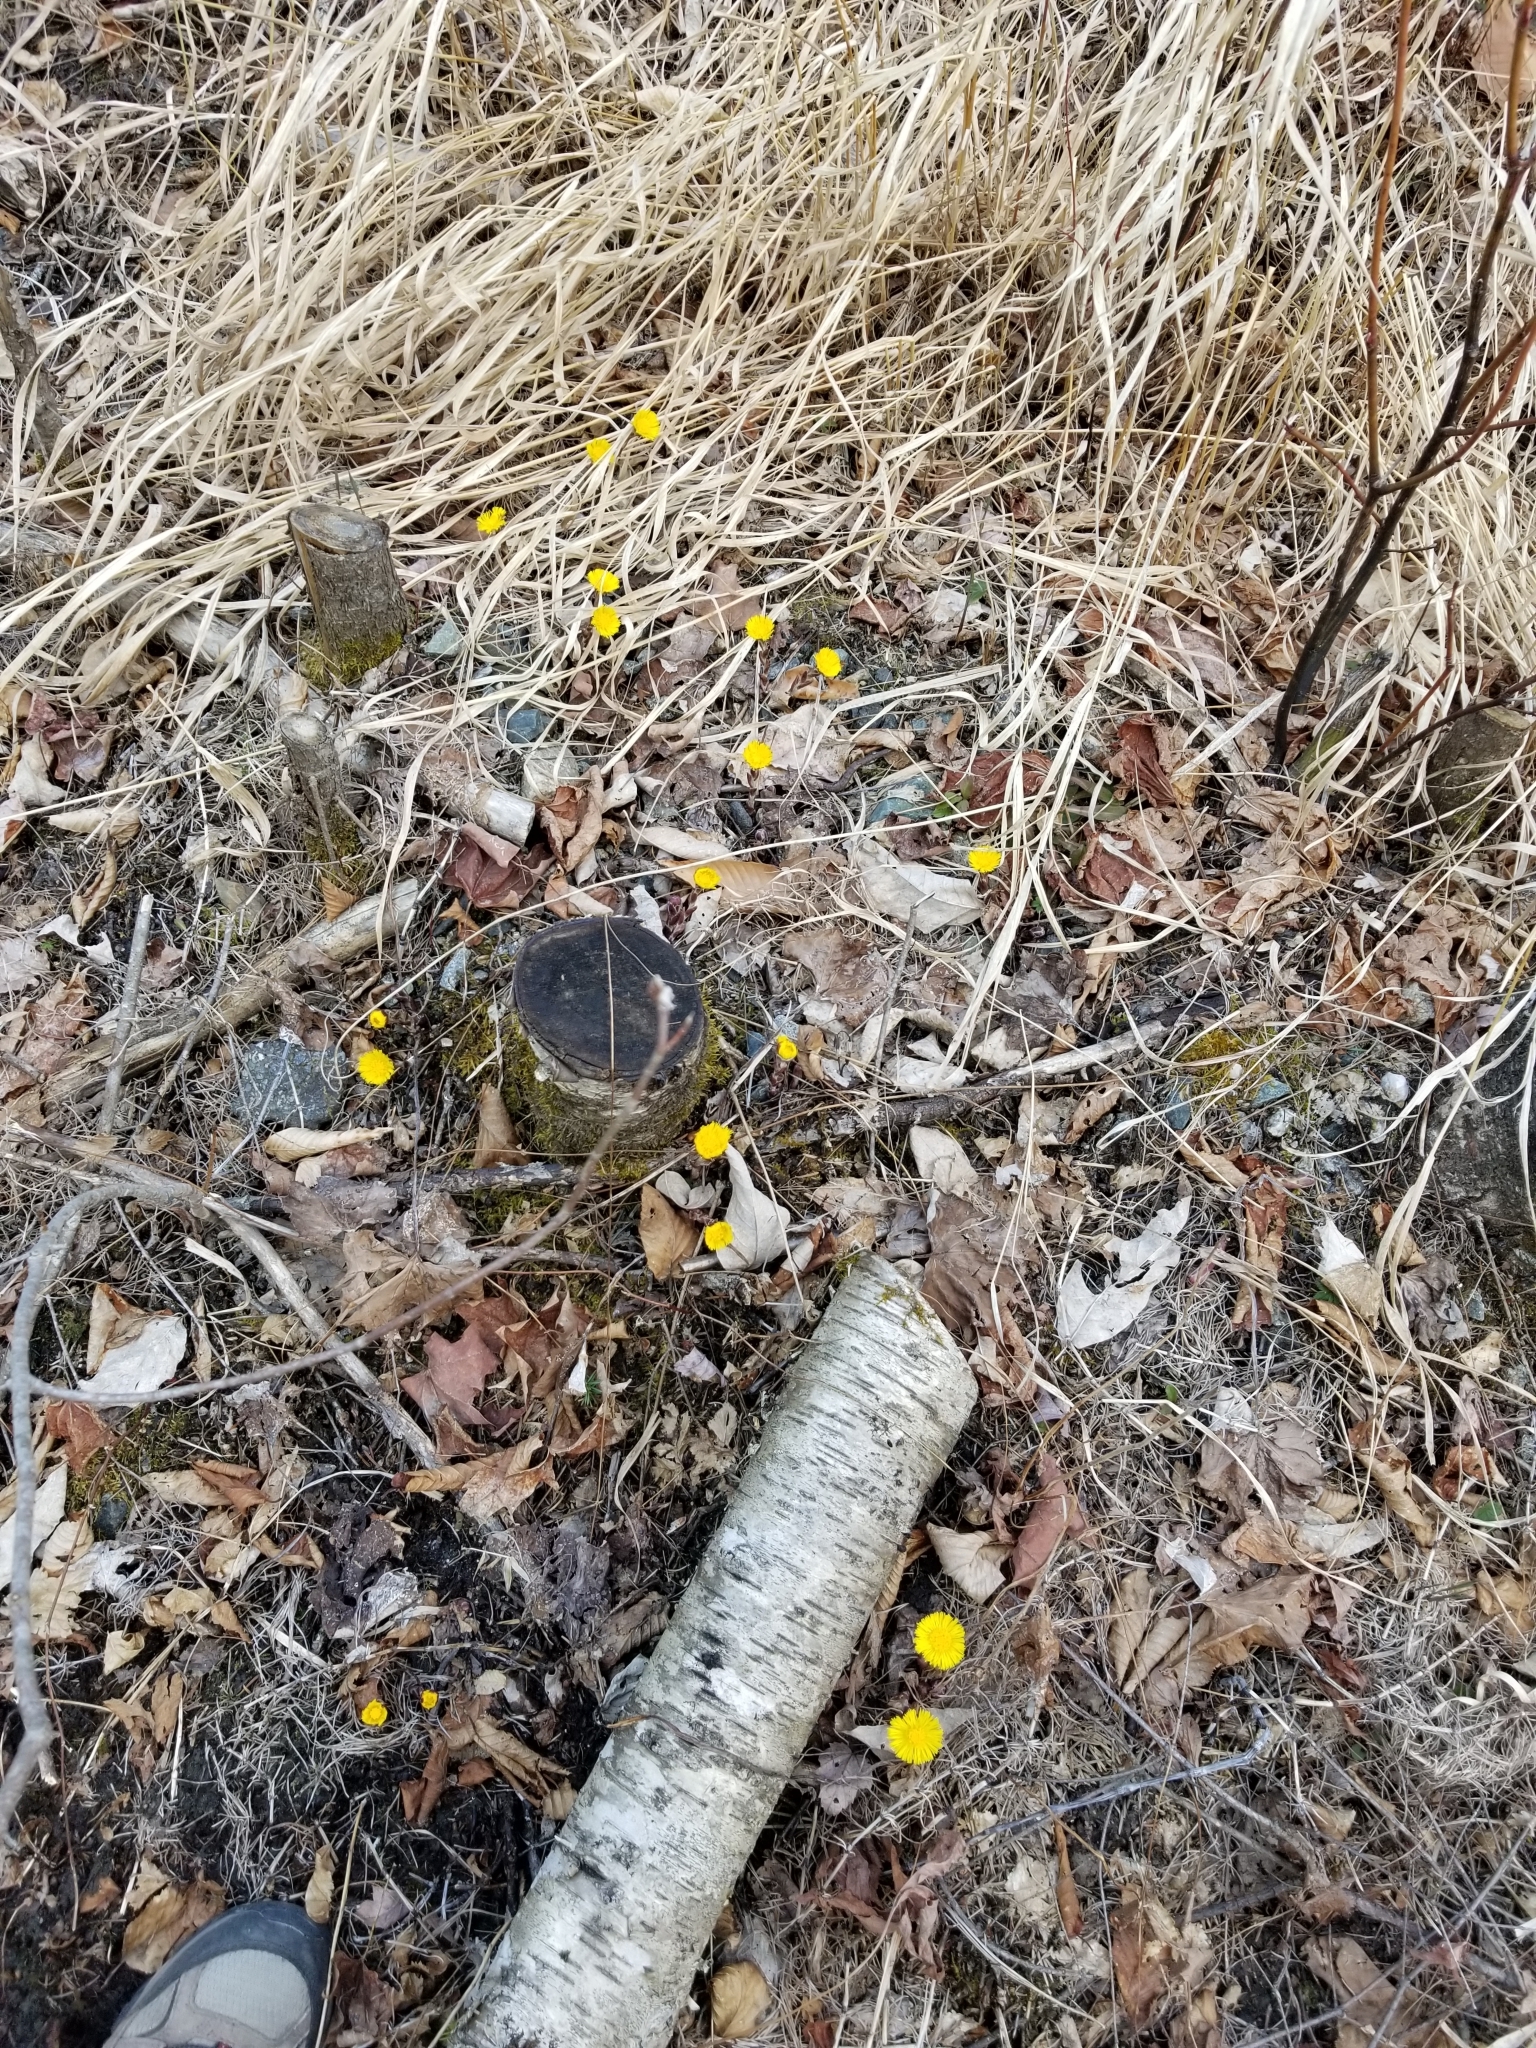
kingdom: Plantae
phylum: Tracheophyta
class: Magnoliopsida
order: Asterales
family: Asteraceae
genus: Tussilago
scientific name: Tussilago farfara
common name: Coltsfoot
